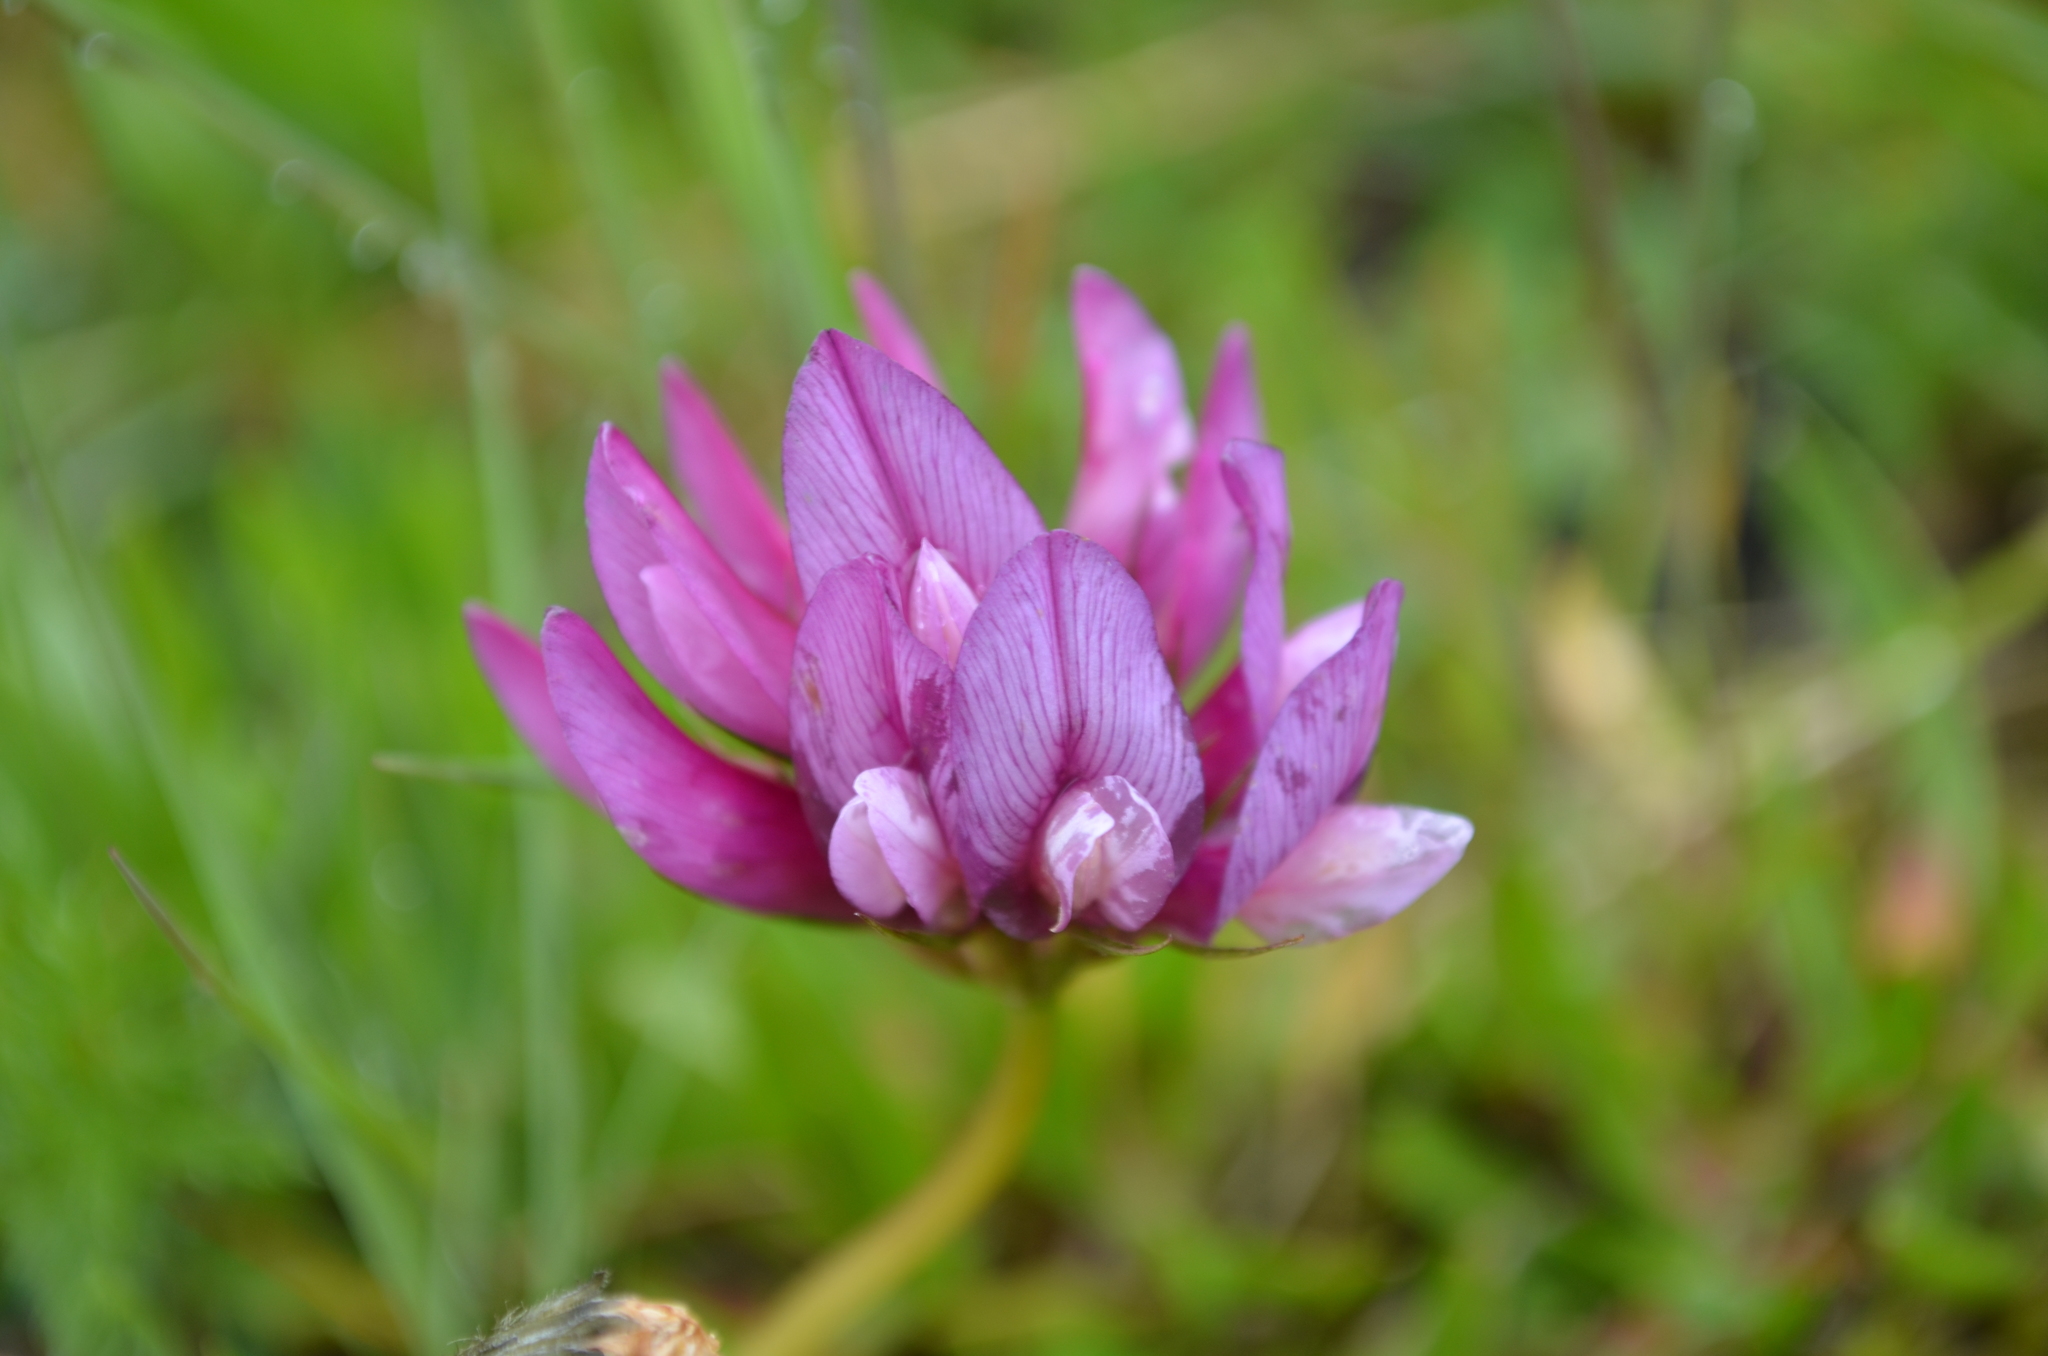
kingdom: Plantae
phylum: Tracheophyta
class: Magnoliopsida
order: Fabales
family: Fabaceae
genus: Trifolium
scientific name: Trifolium alpinum
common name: Alpine clover
